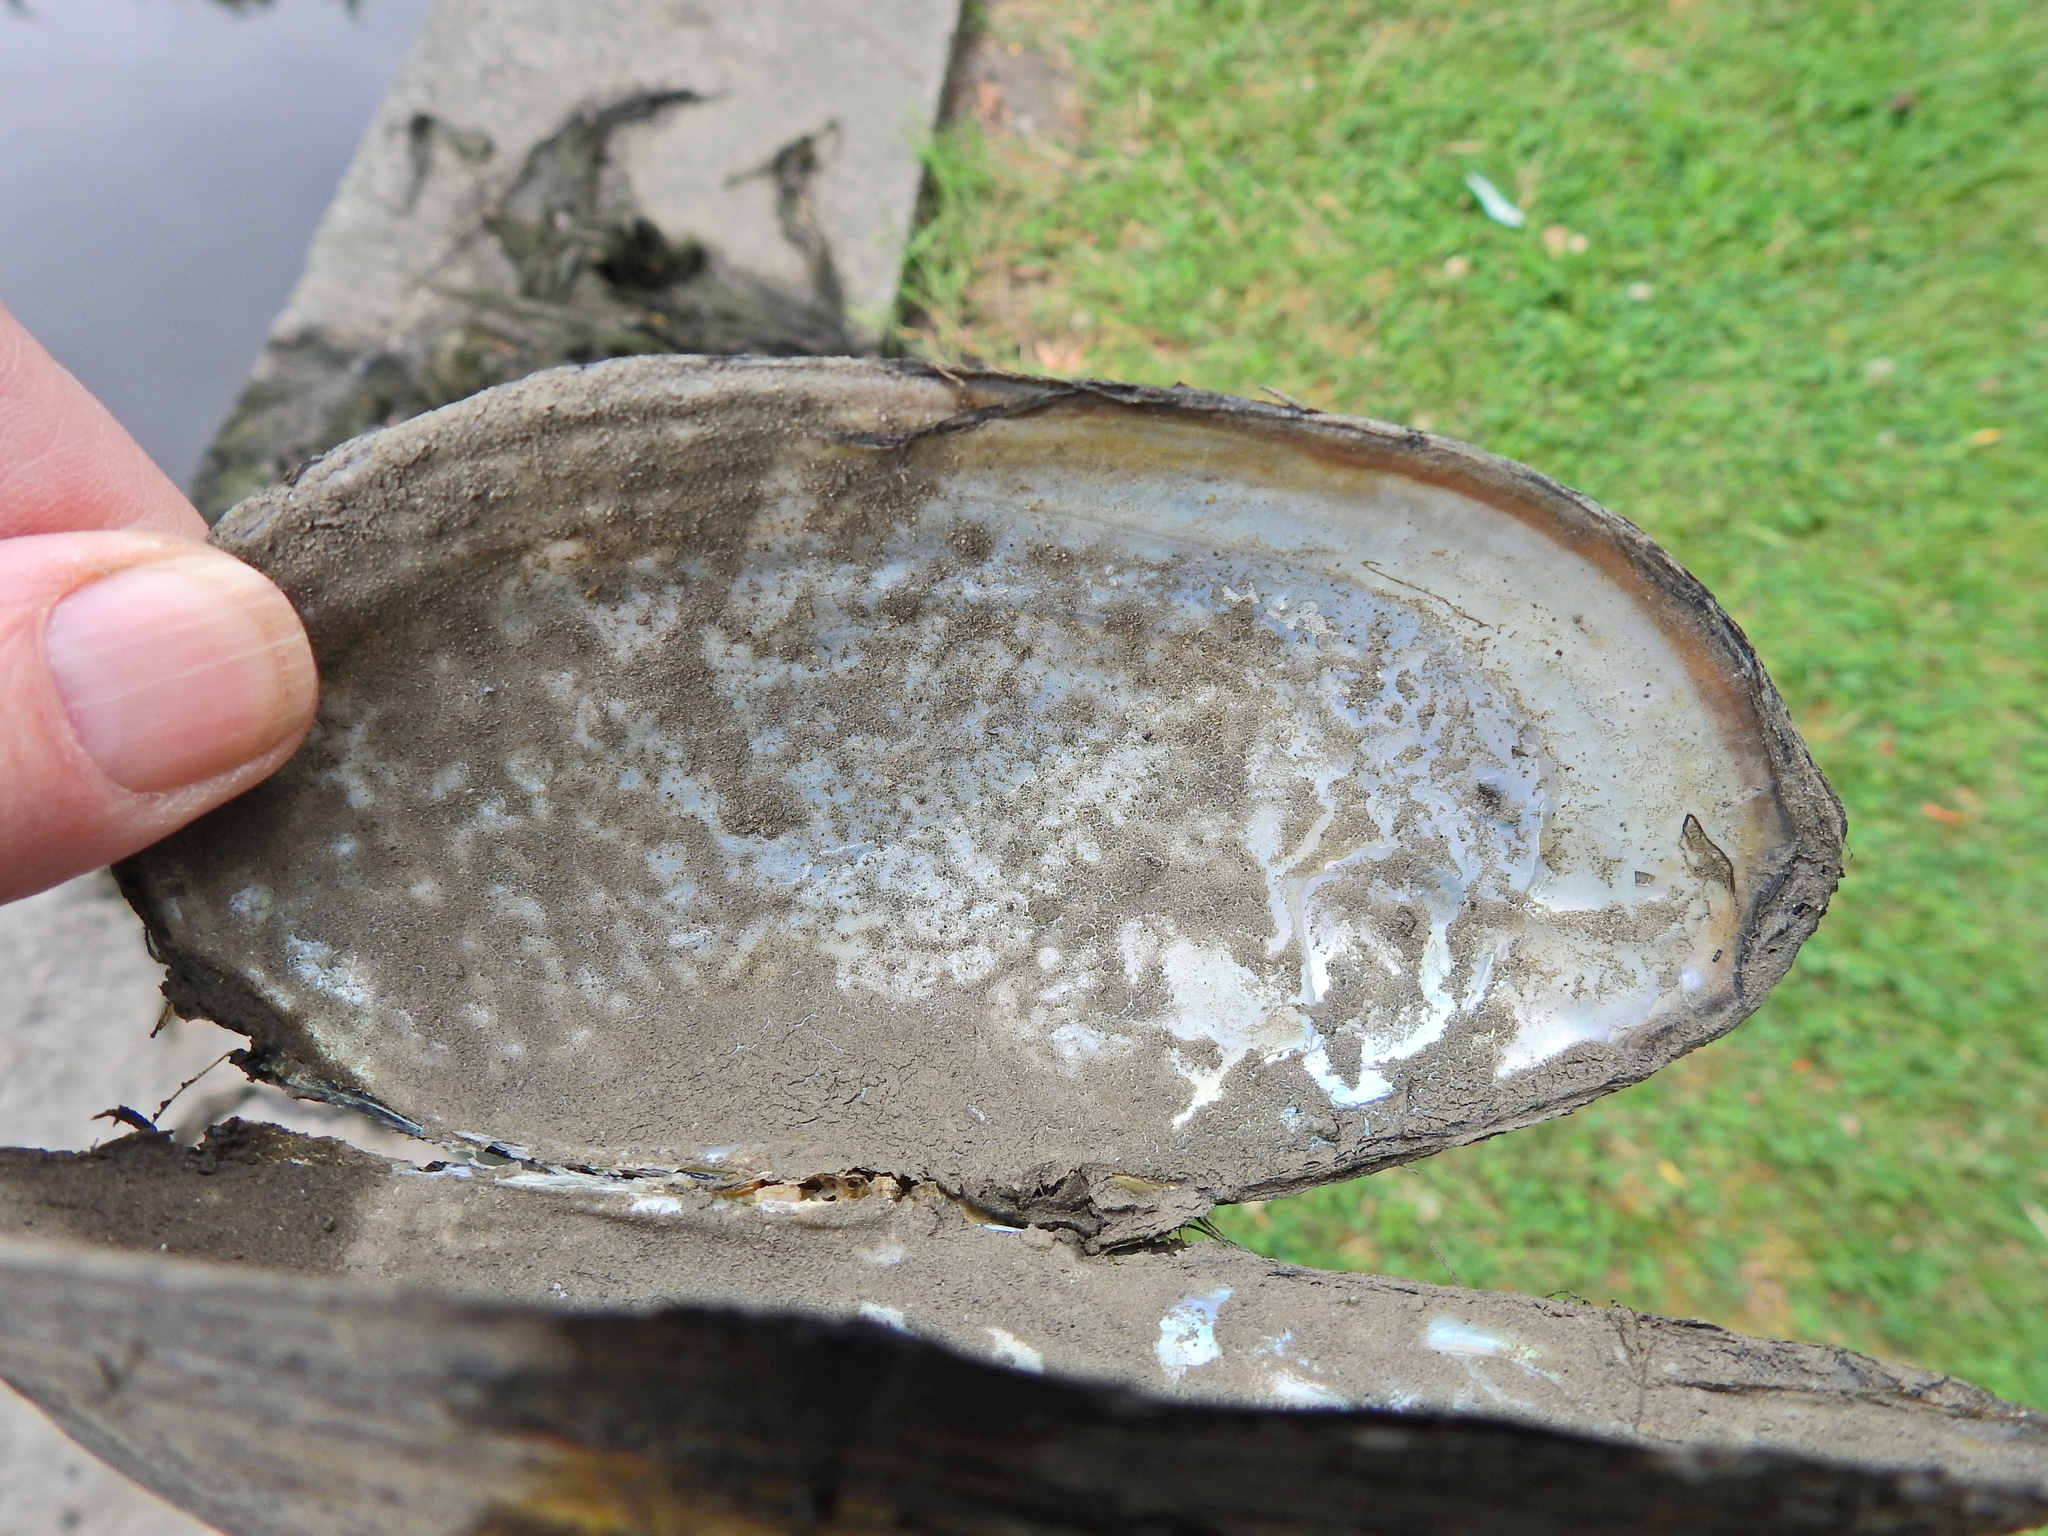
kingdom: Animalia
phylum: Mollusca
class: Bivalvia
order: Unionida
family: Unionidae
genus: Anodonta
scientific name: Anodonta cygnea
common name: Swan mussel
